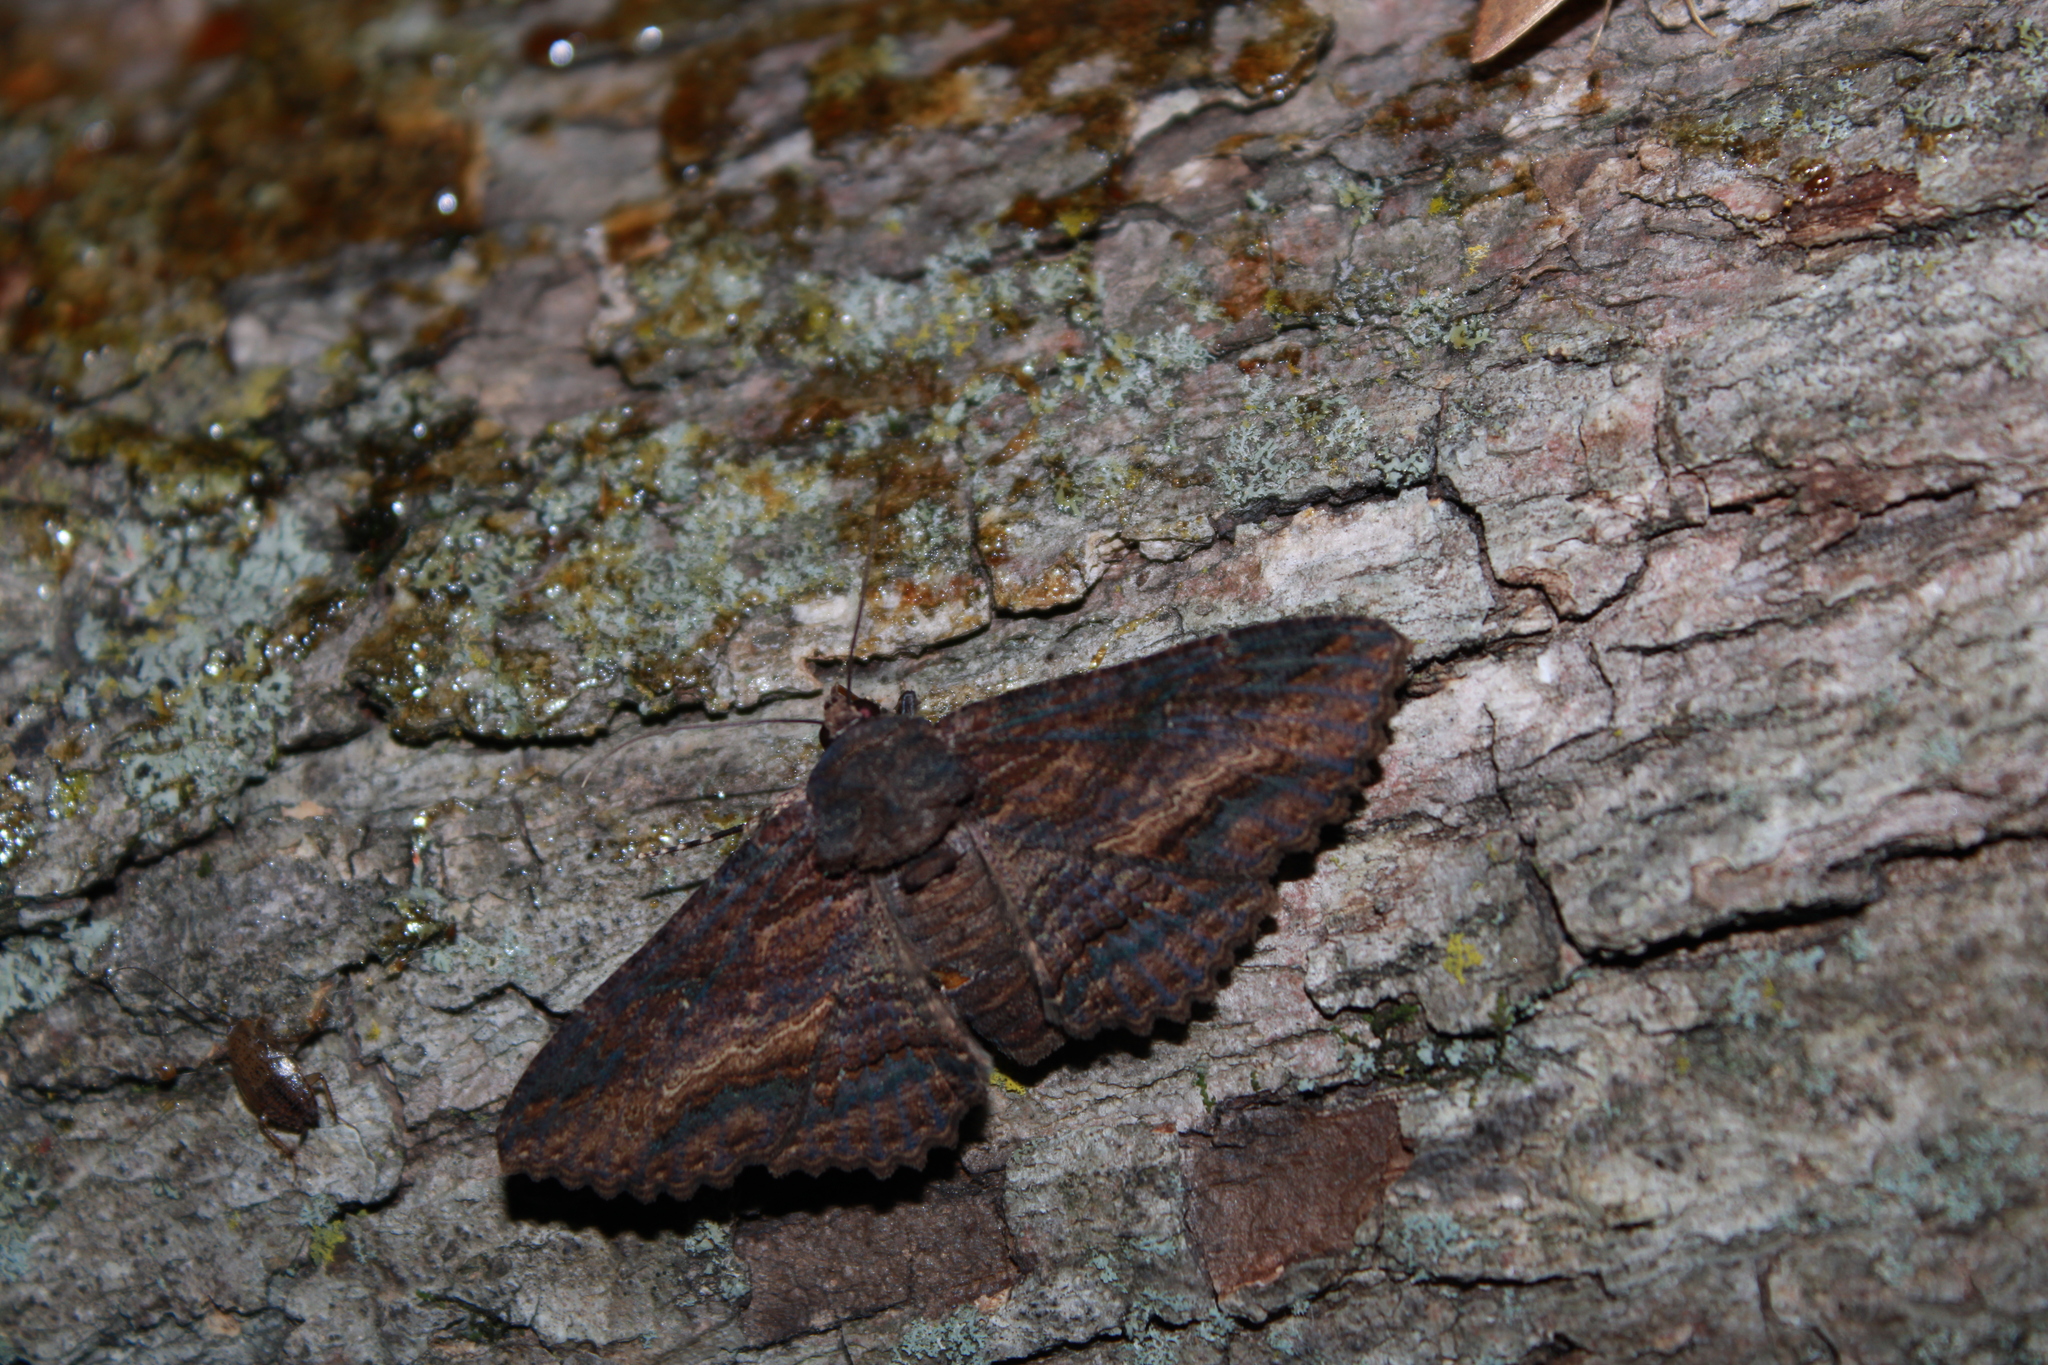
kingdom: Animalia
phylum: Arthropoda
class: Insecta
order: Lepidoptera
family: Erebidae
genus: Zale
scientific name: Zale lunata
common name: Lunate zale moth
